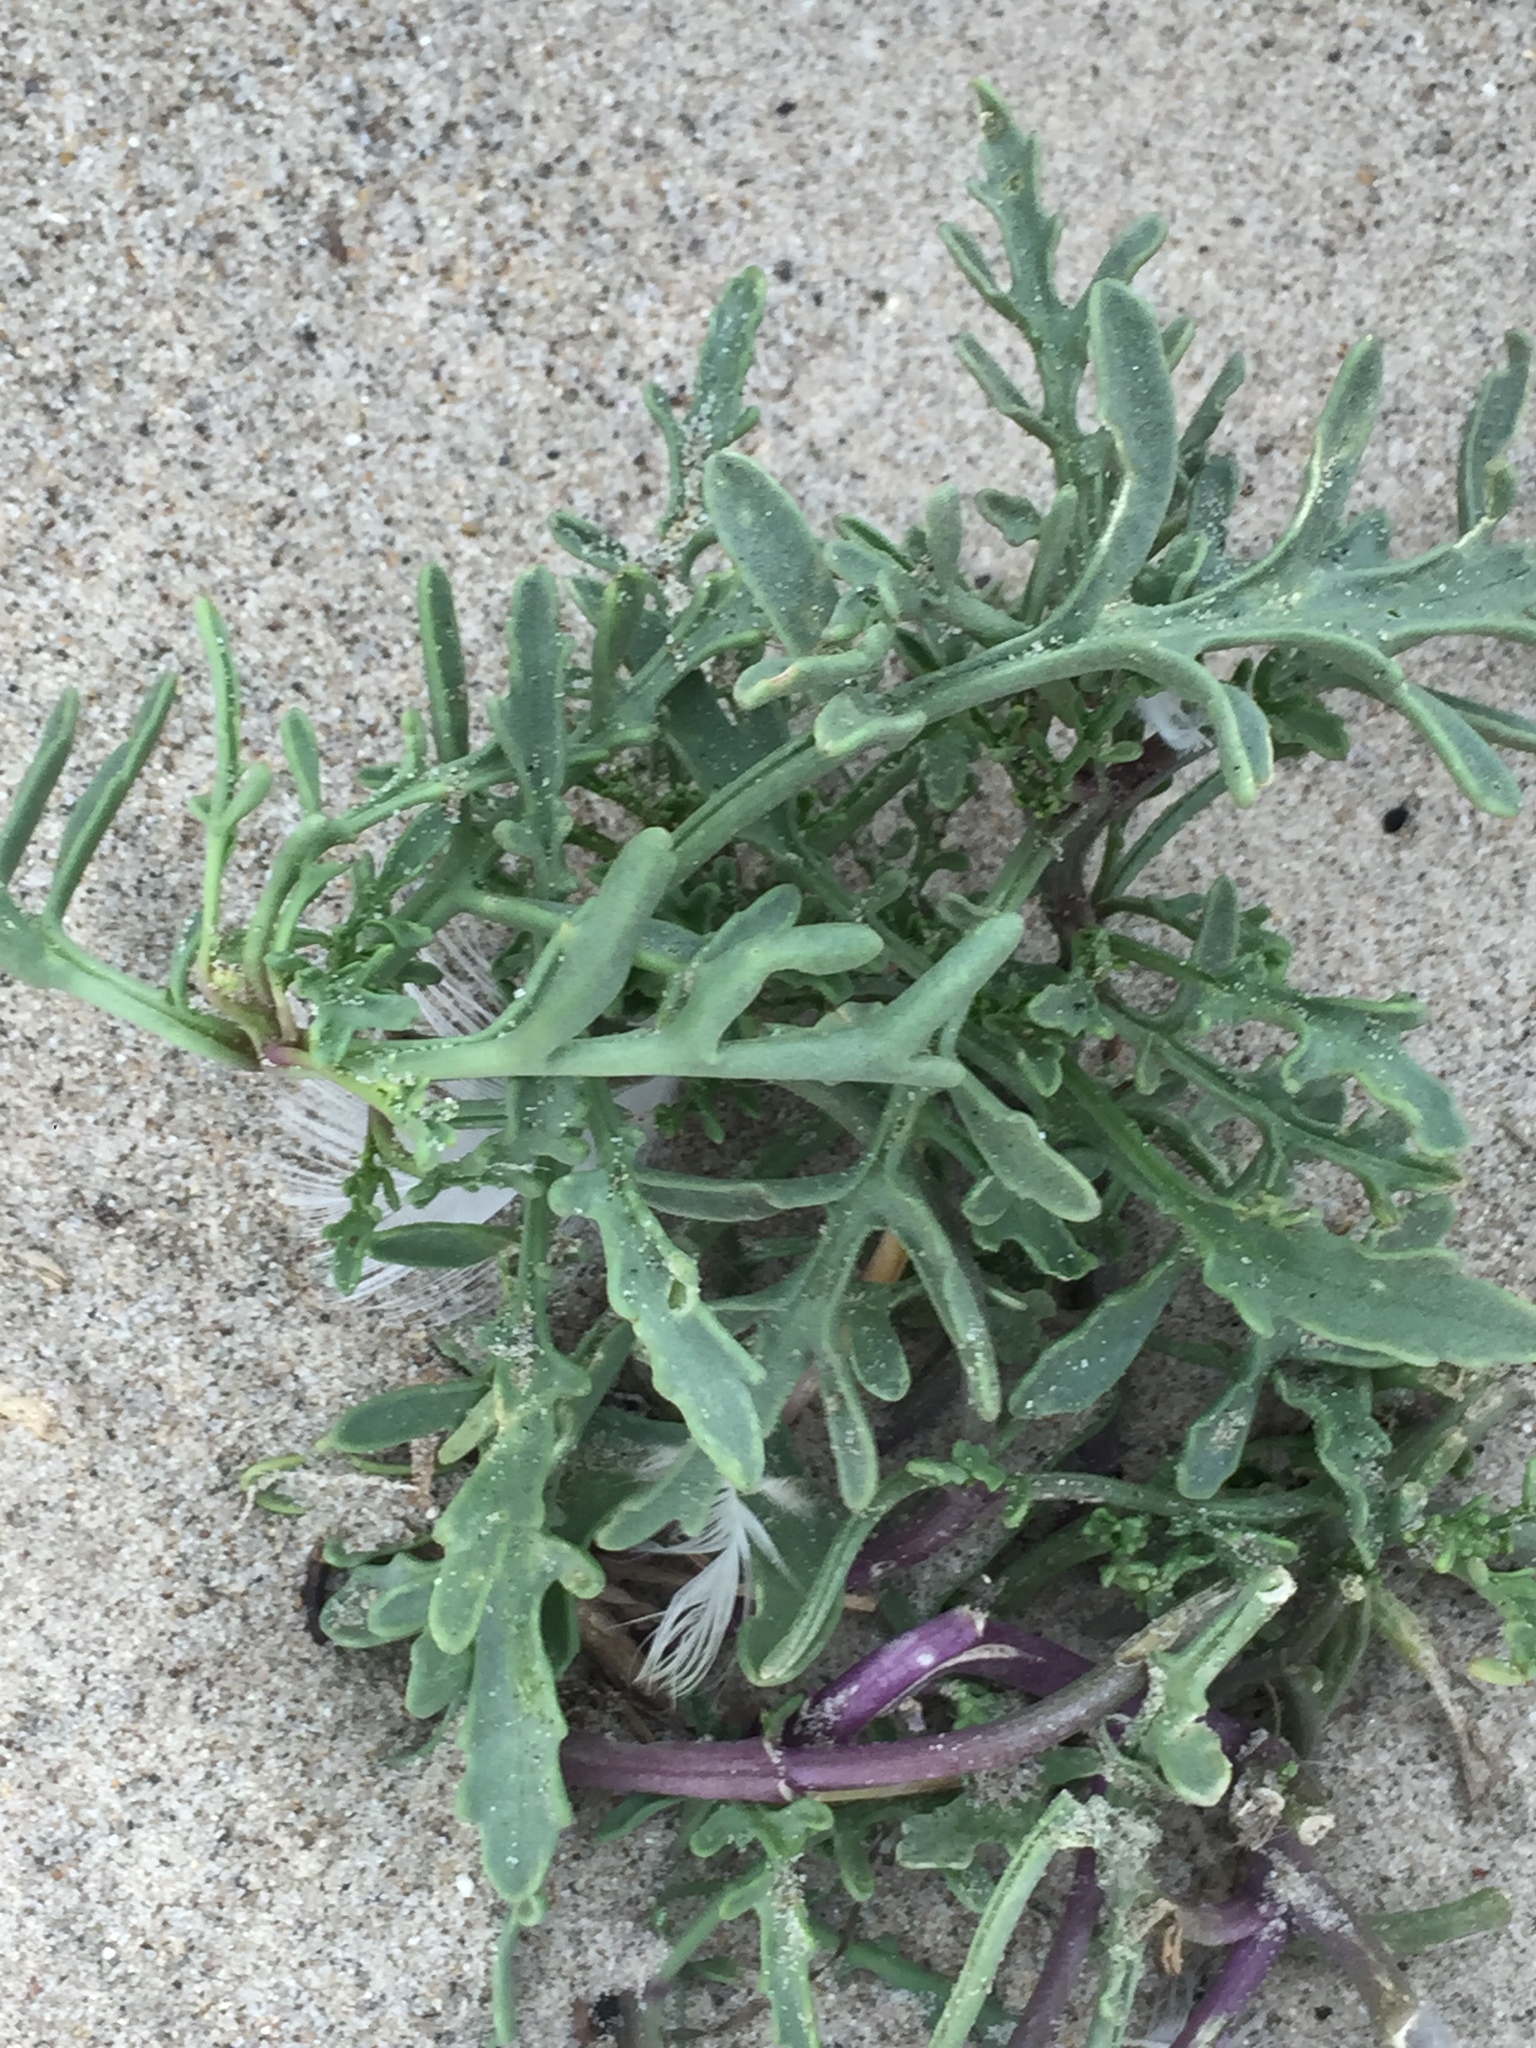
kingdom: Plantae
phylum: Tracheophyta
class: Magnoliopsida
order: Brassicales
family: Brassicaceae
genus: Cakile
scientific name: Cakile maritima
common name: Sea rocket
